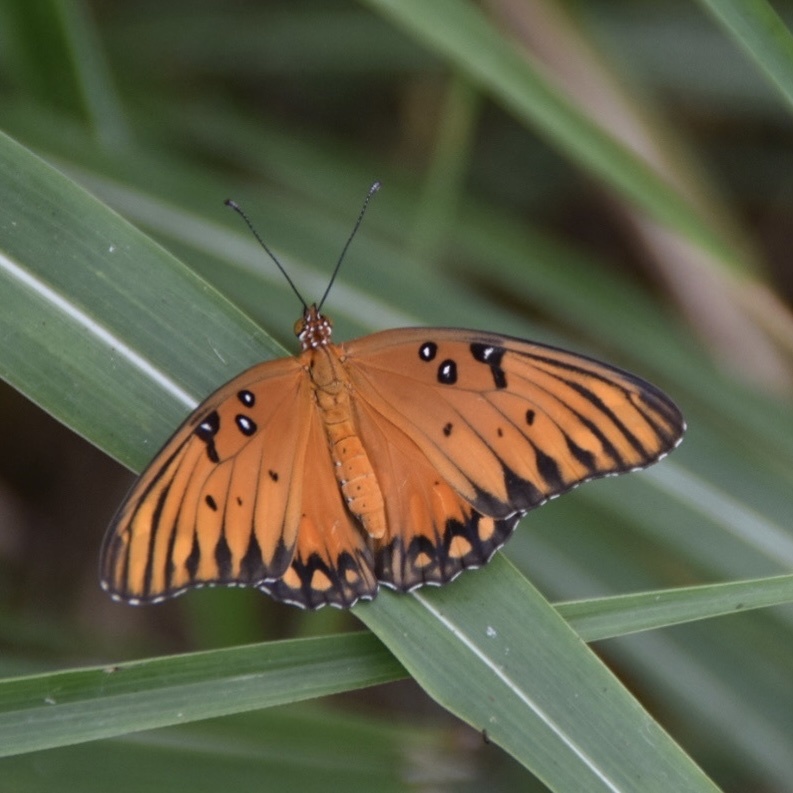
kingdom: Animalia
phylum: Arthropoda
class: Insecta
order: Lepidoptera
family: Nymphalidae
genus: Dione
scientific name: Dione vanillae
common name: Gulf fritillary
